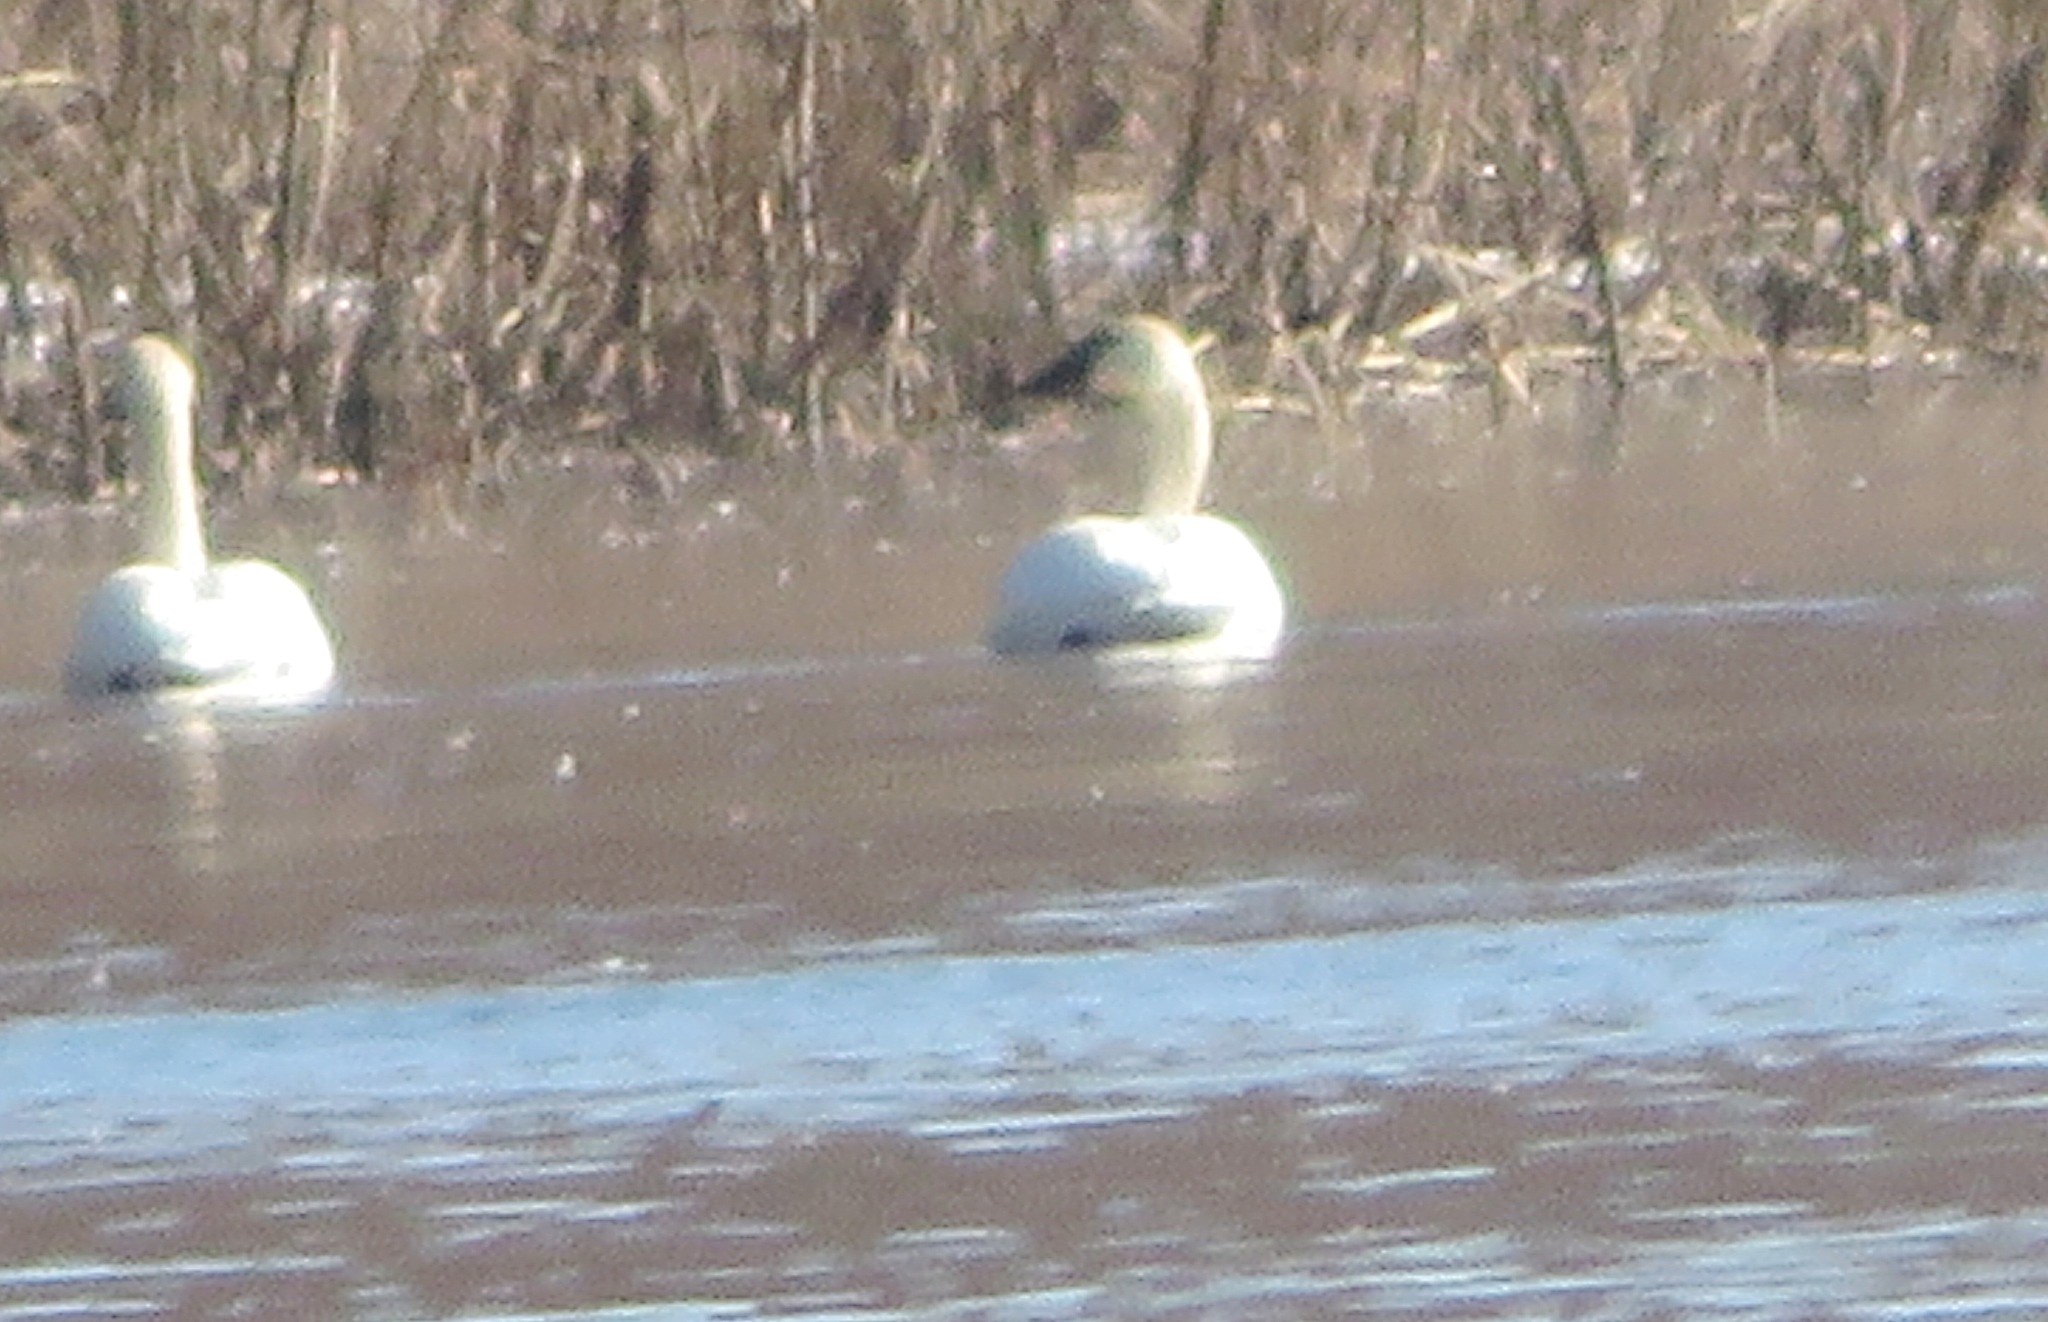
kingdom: Animalia
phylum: Chordata
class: Aves
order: Anseriformes
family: Anatidae
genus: Cygnus
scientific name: Cygnus columbianus
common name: Tundra swan
